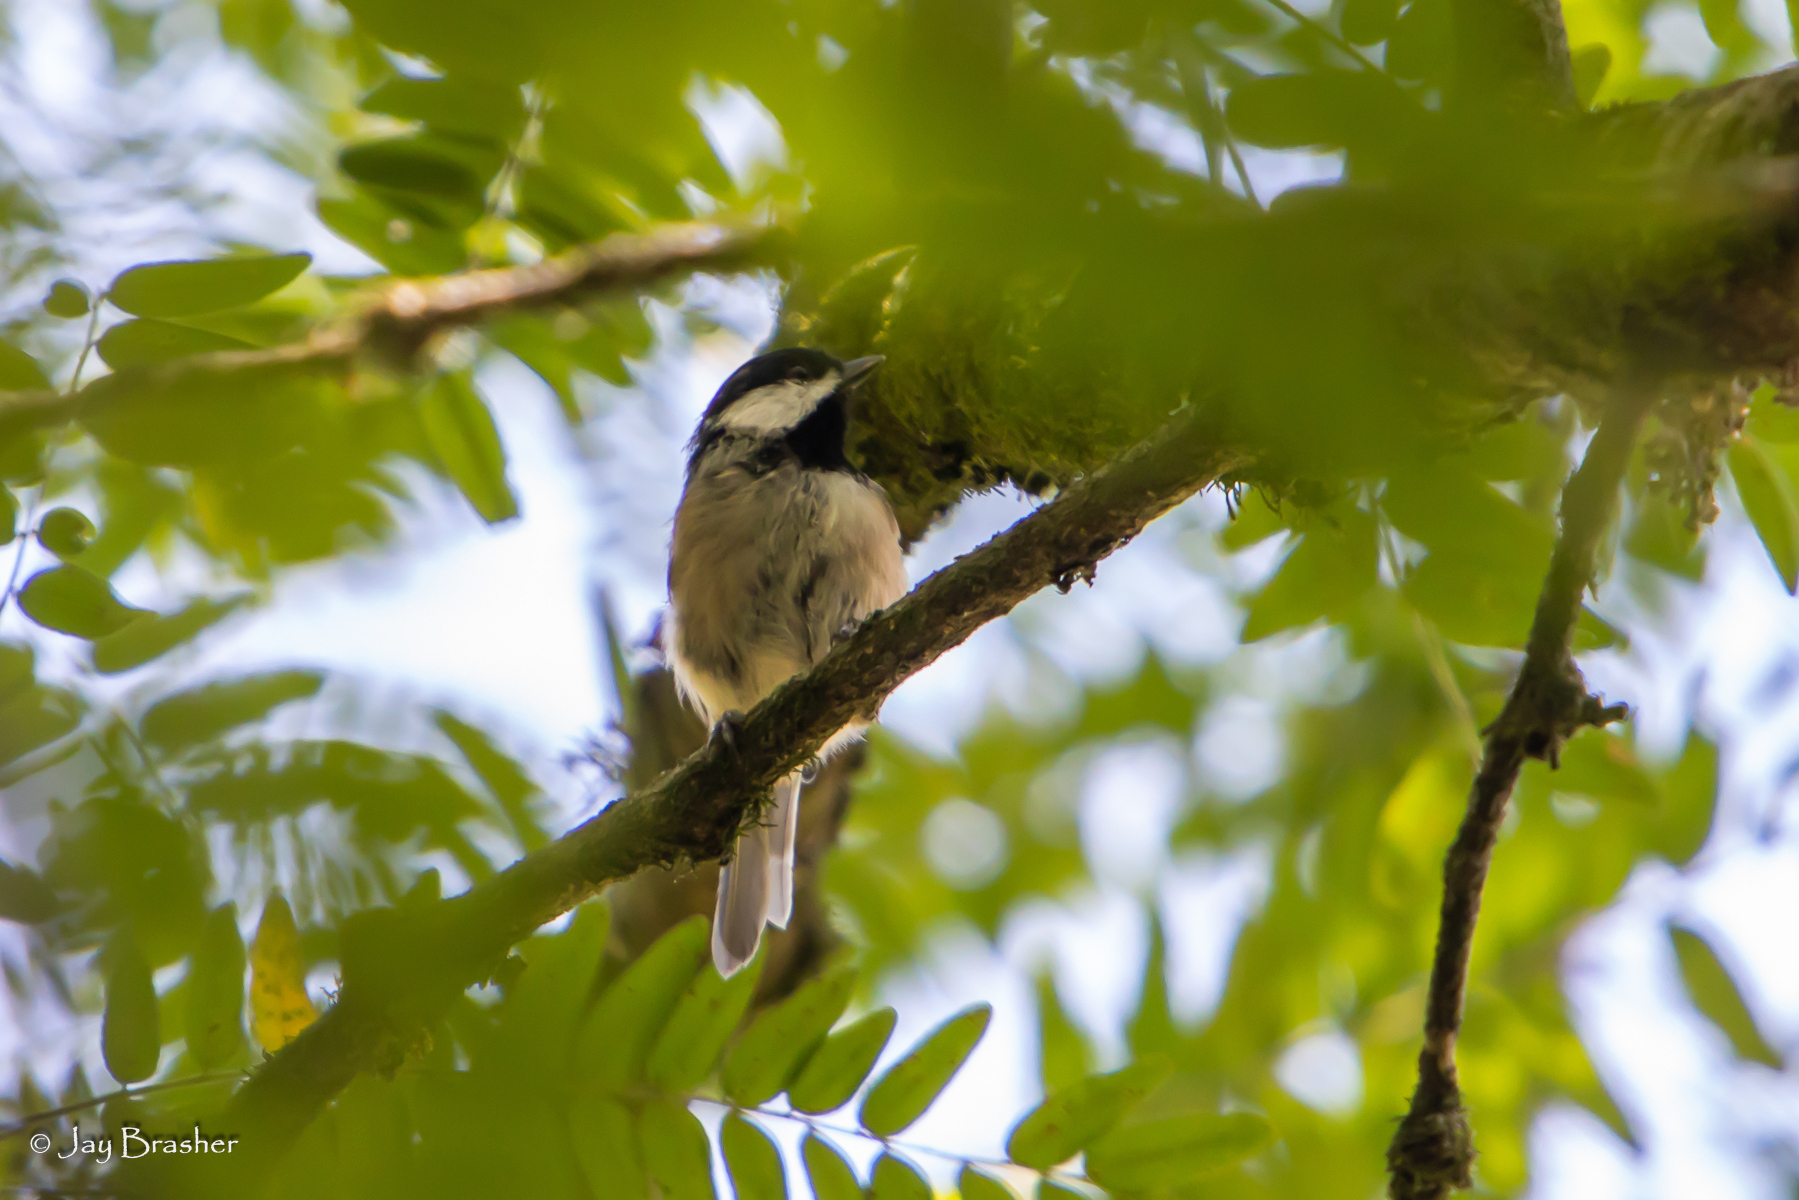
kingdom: Animalia
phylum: Chordata
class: Aves
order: Passeriformes
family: Paridae
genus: Poecile
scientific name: Poecile carolinensis
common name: Carolina chickadee
